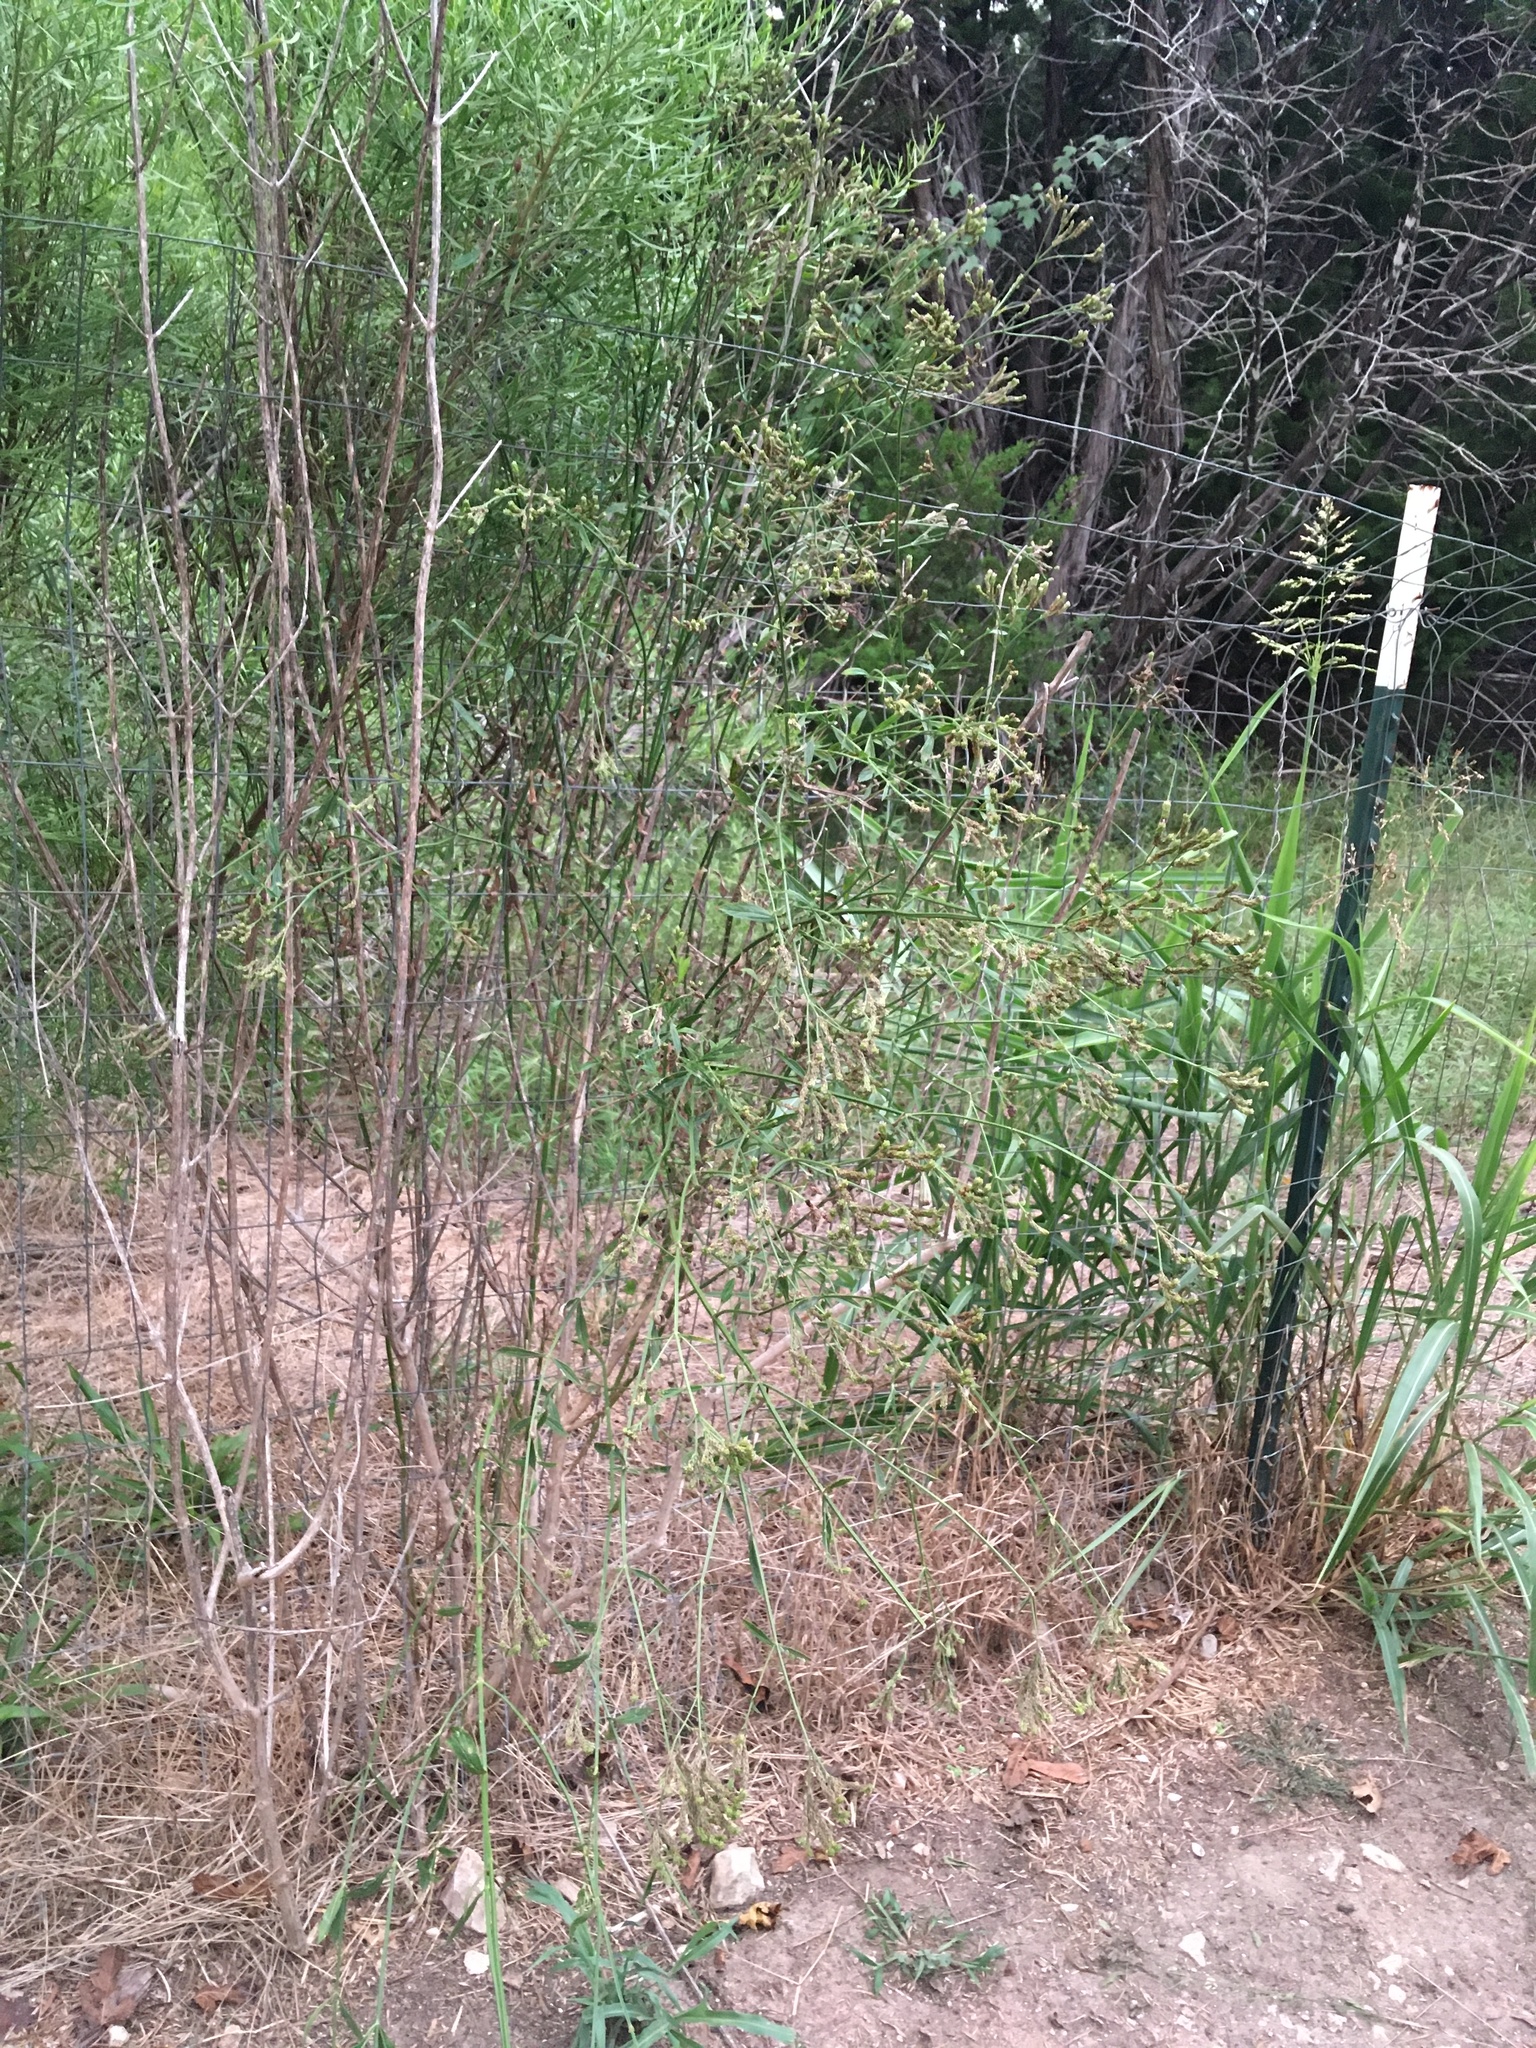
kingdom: Plantae
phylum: Tracheophyta
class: Magnoliopsida
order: Lamiales
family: Verbenaceae
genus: Verbena
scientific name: Verbena brasiliensis
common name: Brazilian vervain
